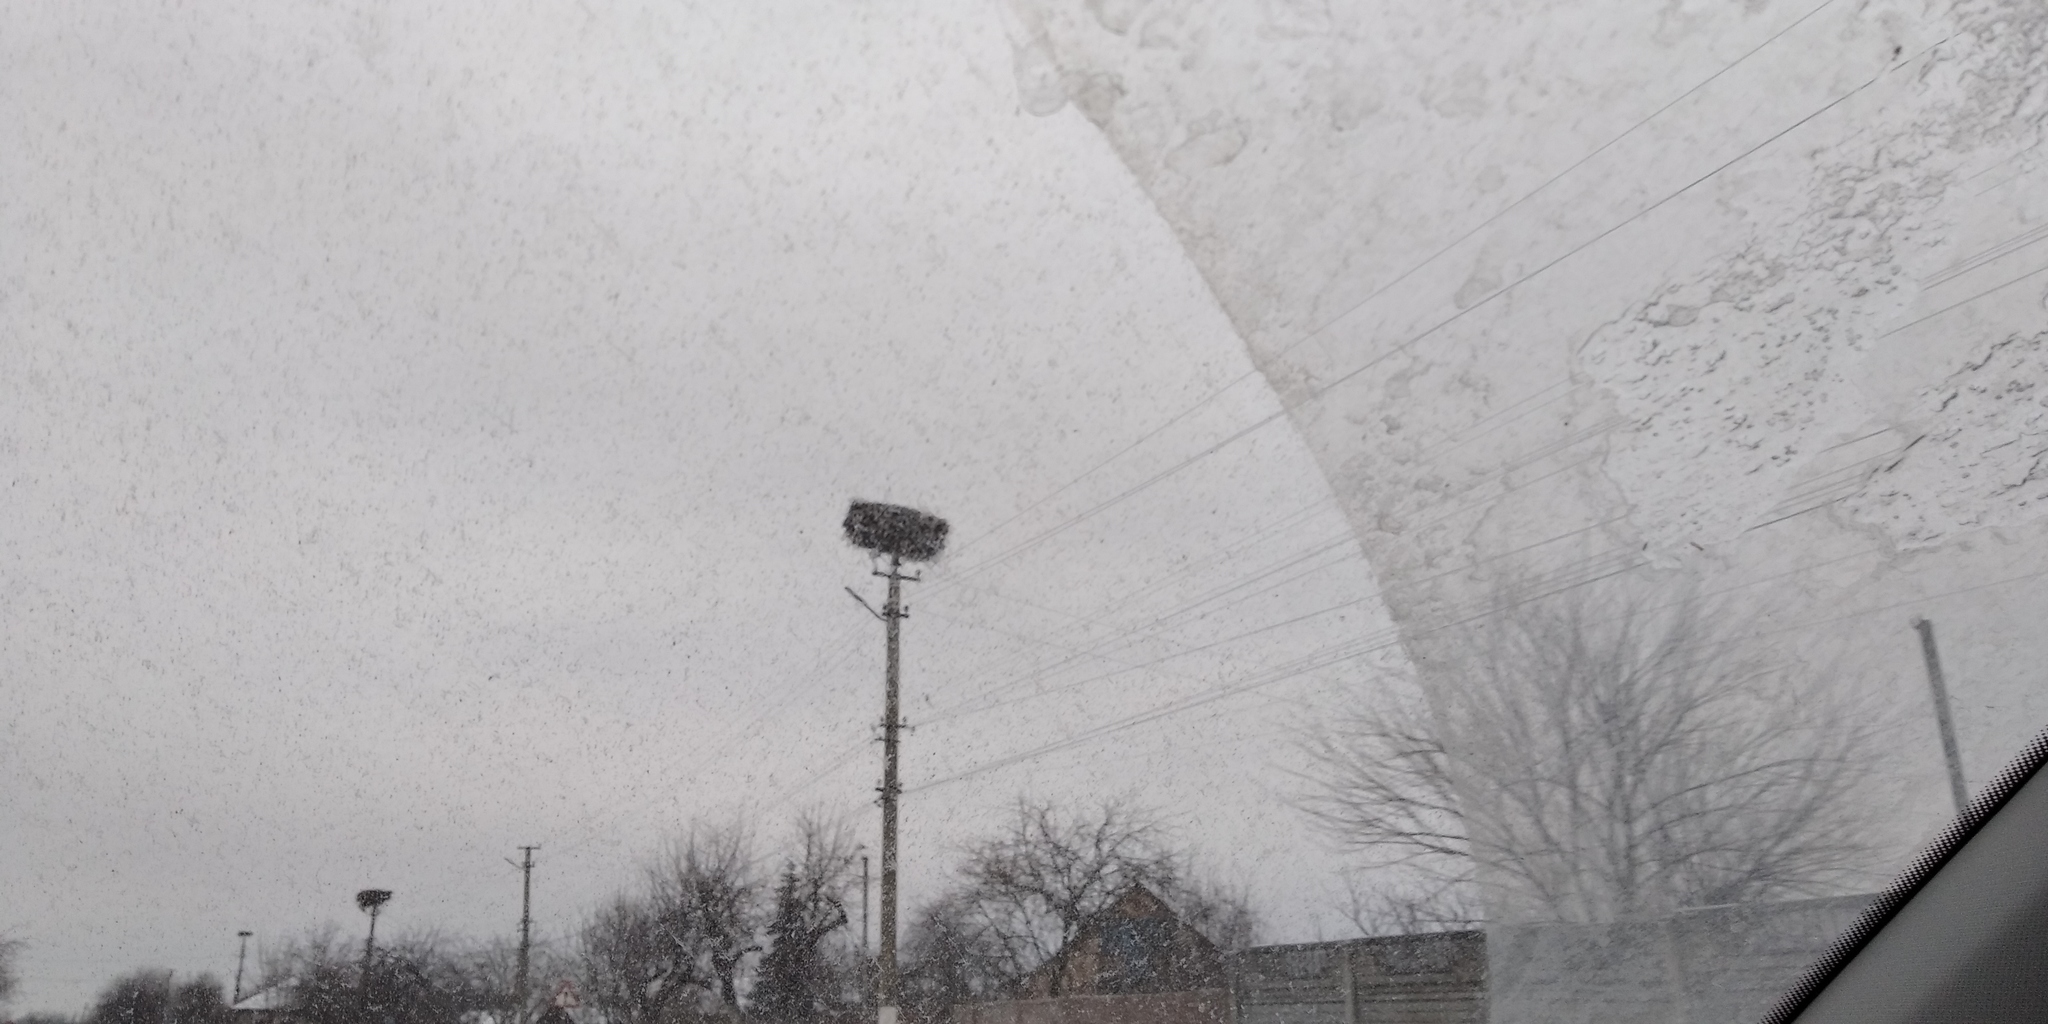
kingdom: Animalia
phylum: Chordata
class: Aves
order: Ciconiiformes
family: Ciconiidae
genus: Ciconia
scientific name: Ciconia ciconia
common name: White stork
